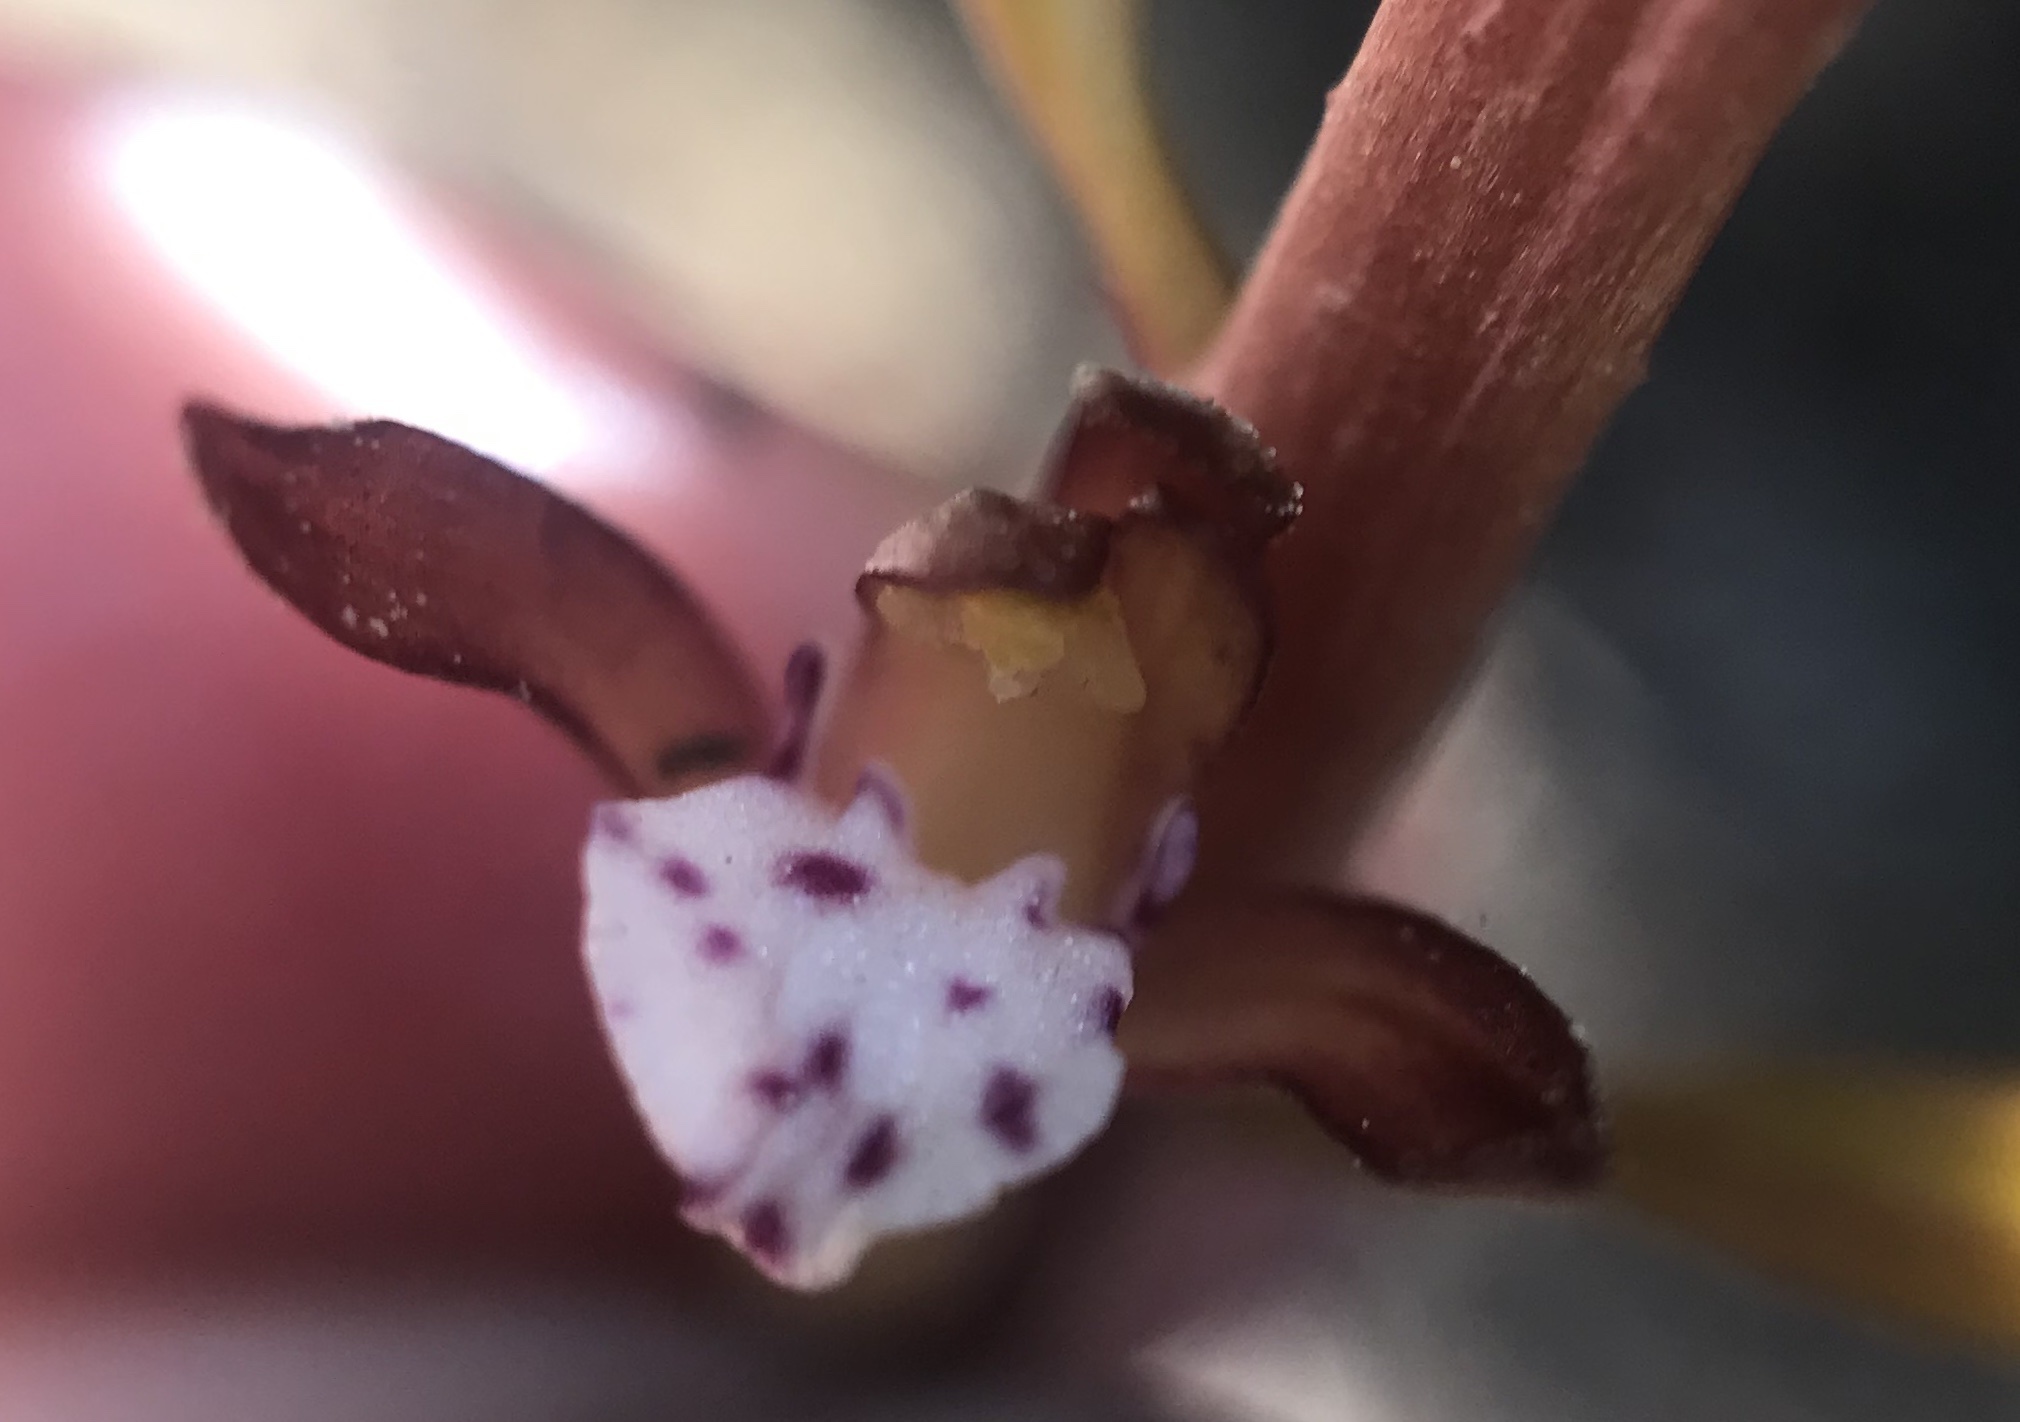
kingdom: Plantae
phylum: Tracheophyta
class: Liliopsida
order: Asparagales
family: Orchidaceae
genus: Corallorhiza
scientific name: Corallorhiza maculata
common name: Spotted coralroot
